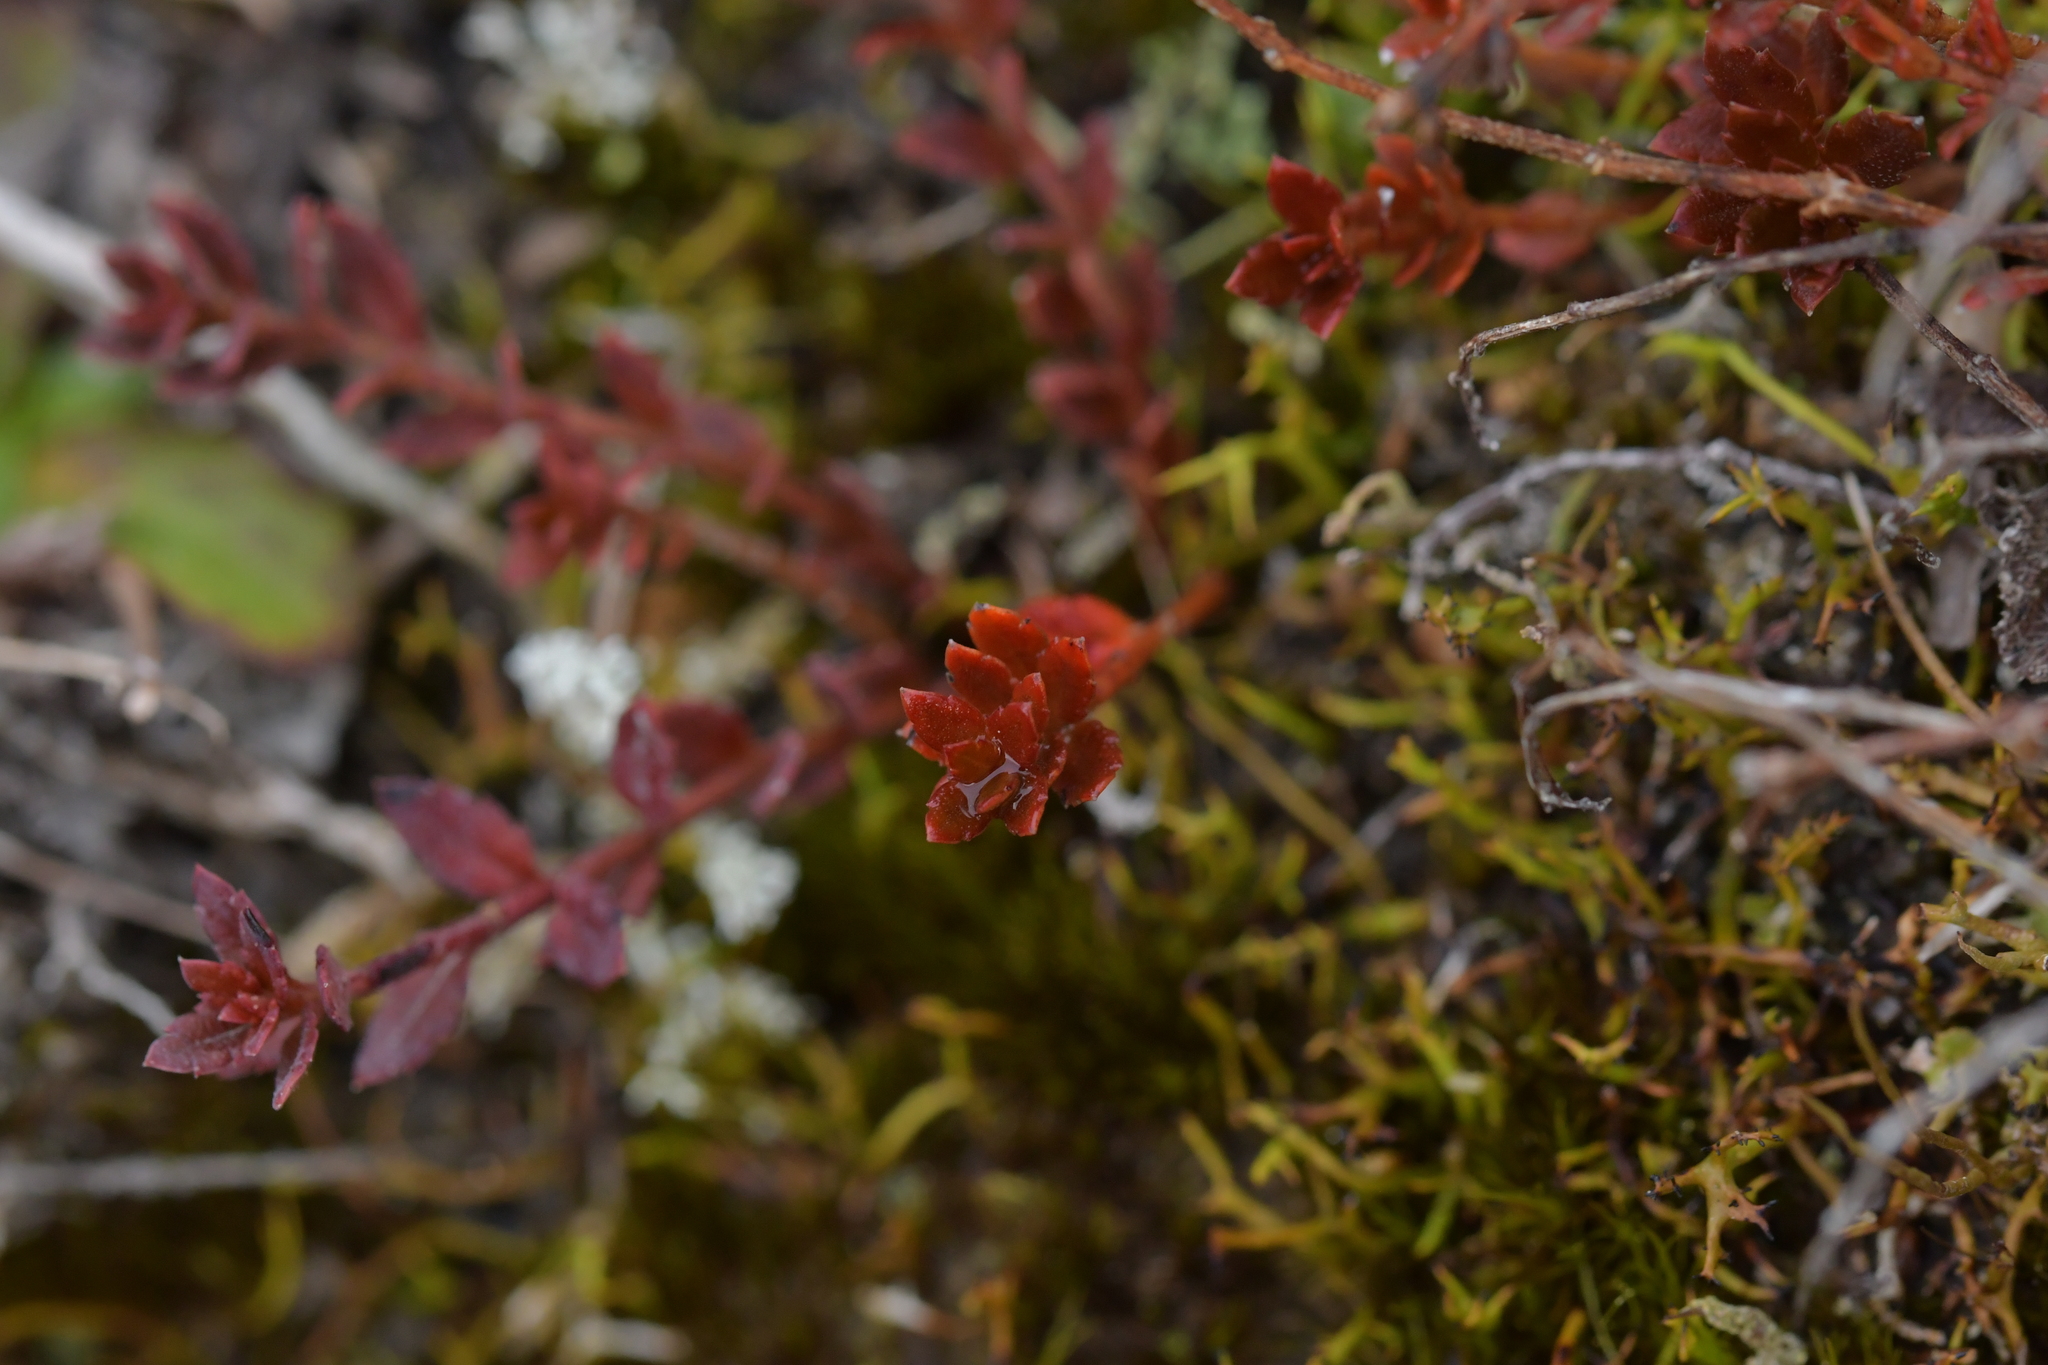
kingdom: Plantae
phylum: Tracheophyta
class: Magnoliopsida
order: Saxifragales
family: Haloragaceae
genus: Gonocarpus
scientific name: Gonocarpus aggregatus
